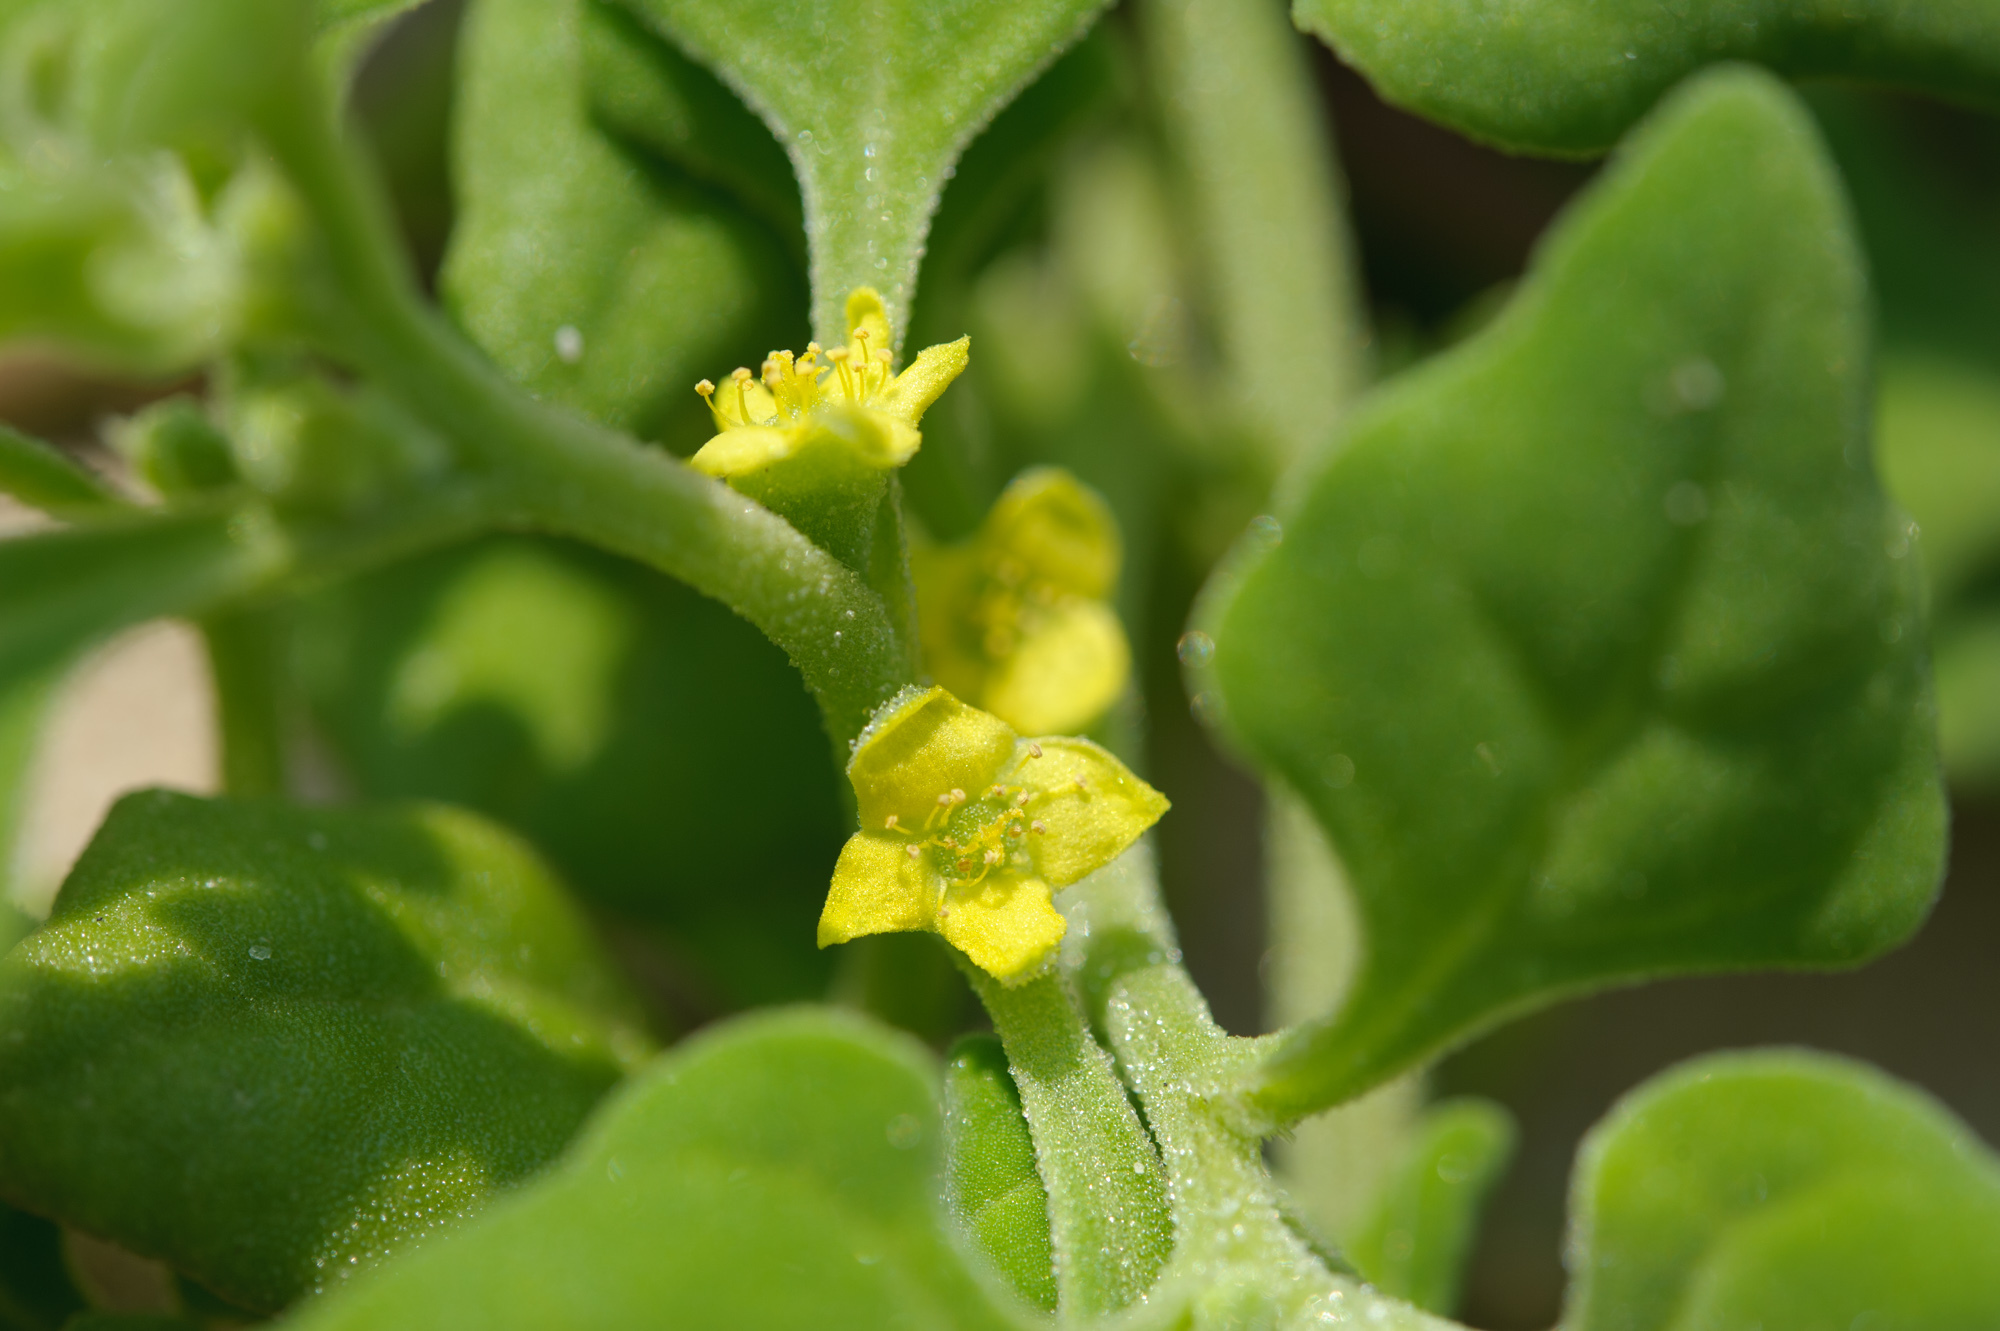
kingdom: Plantae
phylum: Tracheophyta
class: Magnoliopsida
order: Caryophyllales
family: Aizoaceae
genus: Tetragonia
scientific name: Tetragonia tetragonoides
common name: New zealand-spinach
